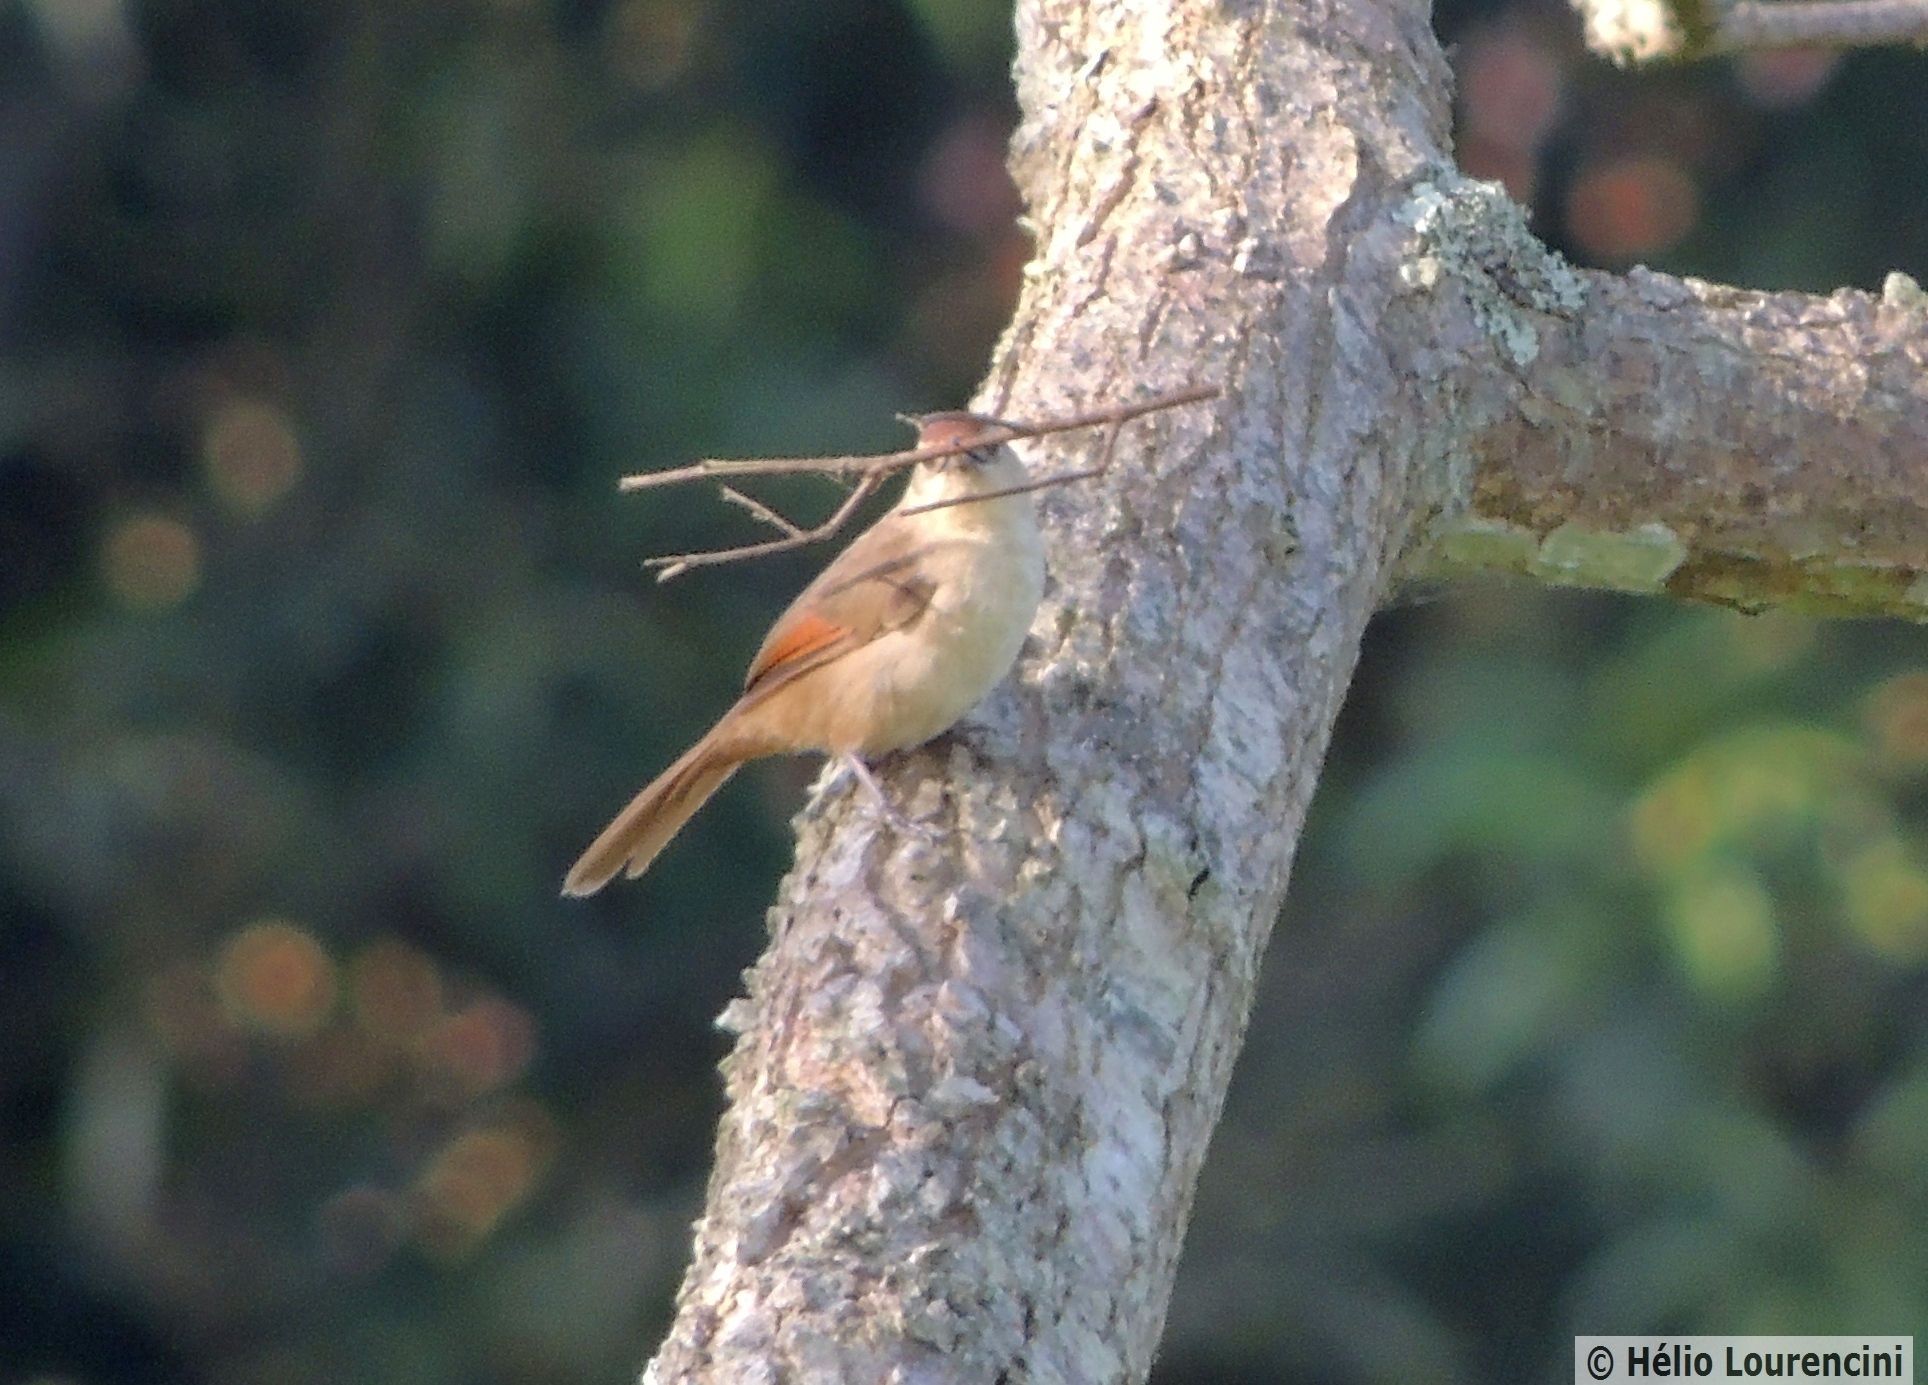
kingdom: Animalia
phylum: Chordata
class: Aves
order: Passeriformes
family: Furnariidae
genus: Certhiaxis
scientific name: Certhiaxis cinnamomeus
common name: Yellow-chinned spinetail
